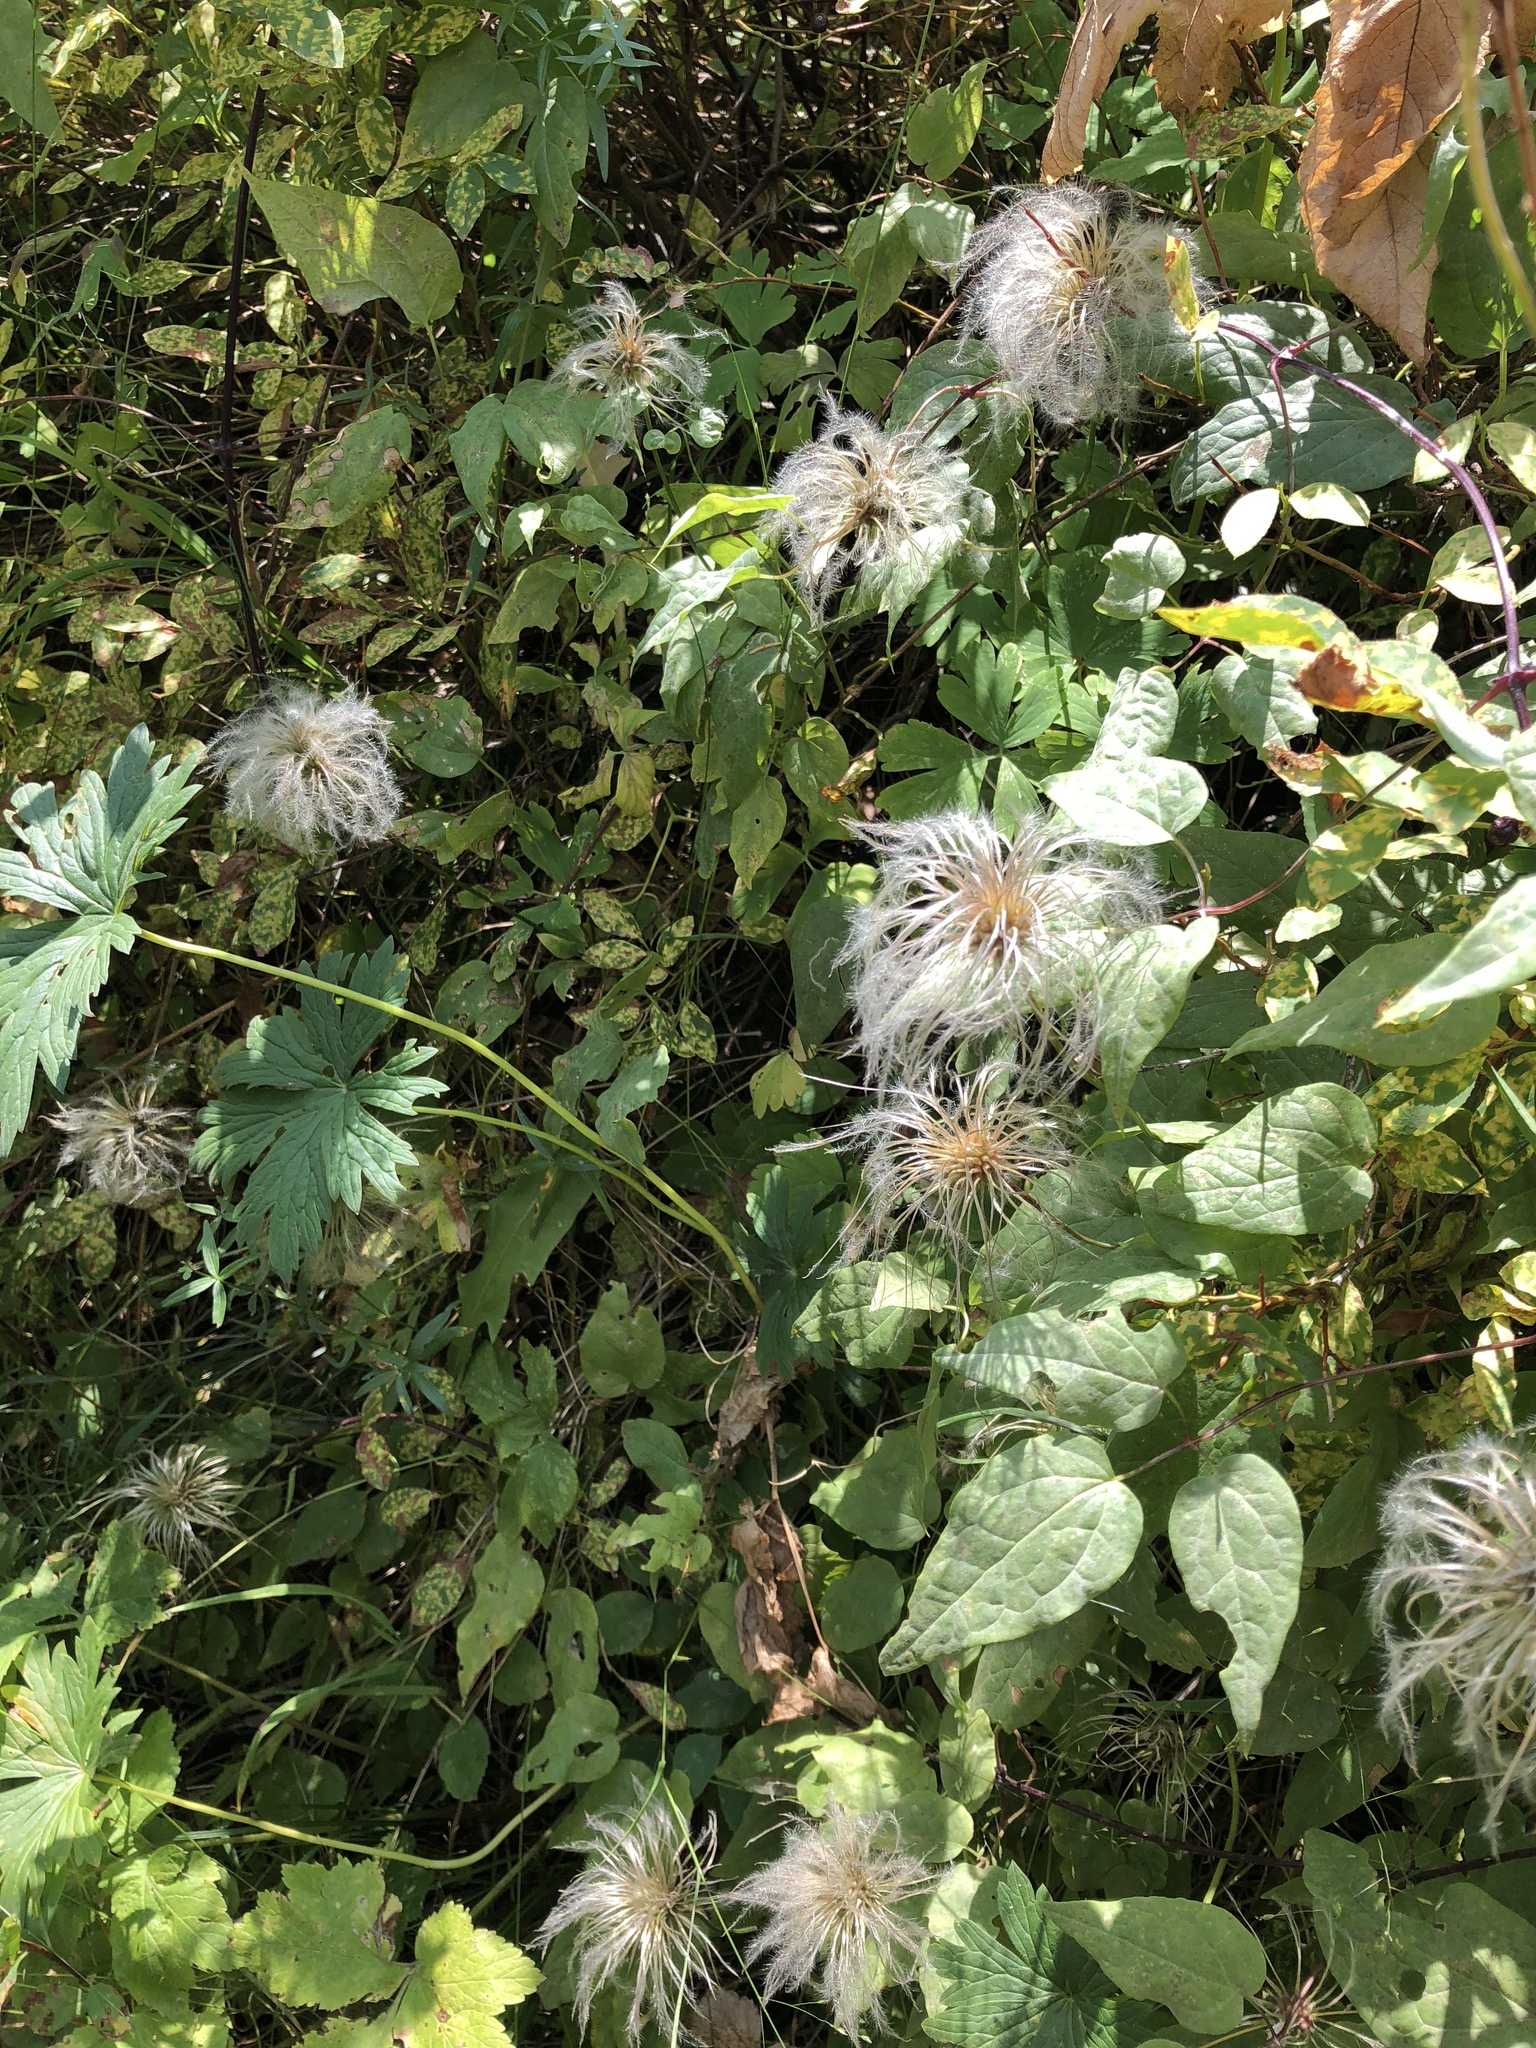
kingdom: Plantae
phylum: Tracheophyta
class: Magnoliopsida
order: Ranunculales
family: Ranunculaceae
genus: Clematis
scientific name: Clematis occidentalis
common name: Purple clematis
